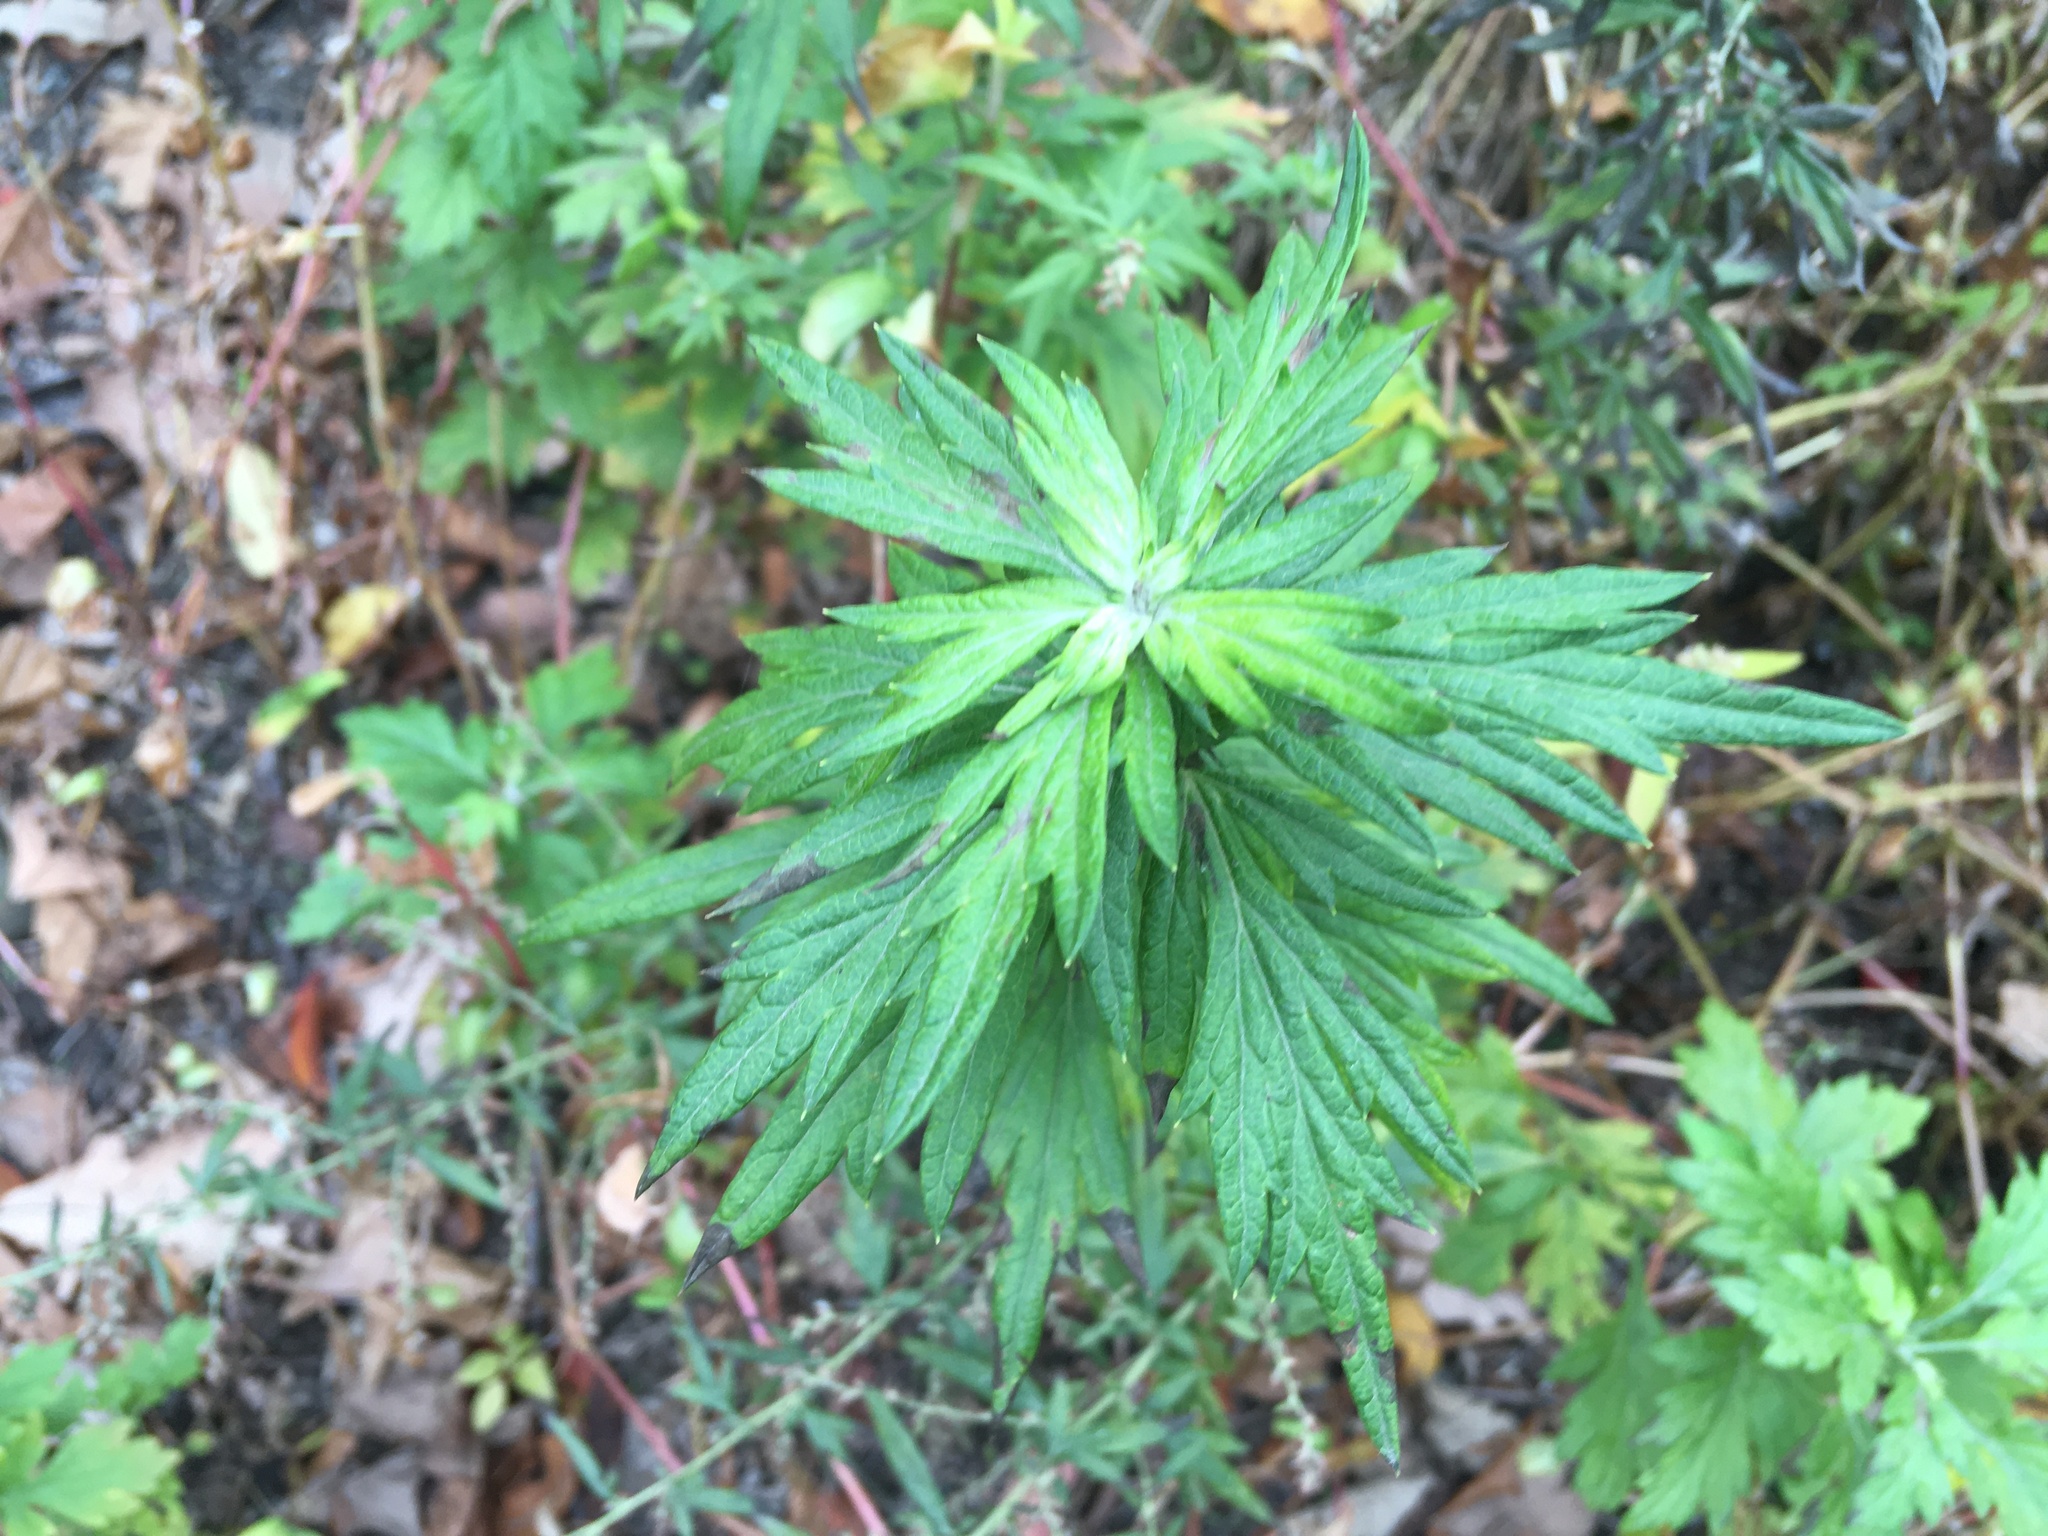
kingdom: Plantae
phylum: Tracheophyta
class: Magnoliopsida
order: Asterales
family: Asteraceae
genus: Artemisia
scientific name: Artemisia vulgaris
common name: Mugwort
